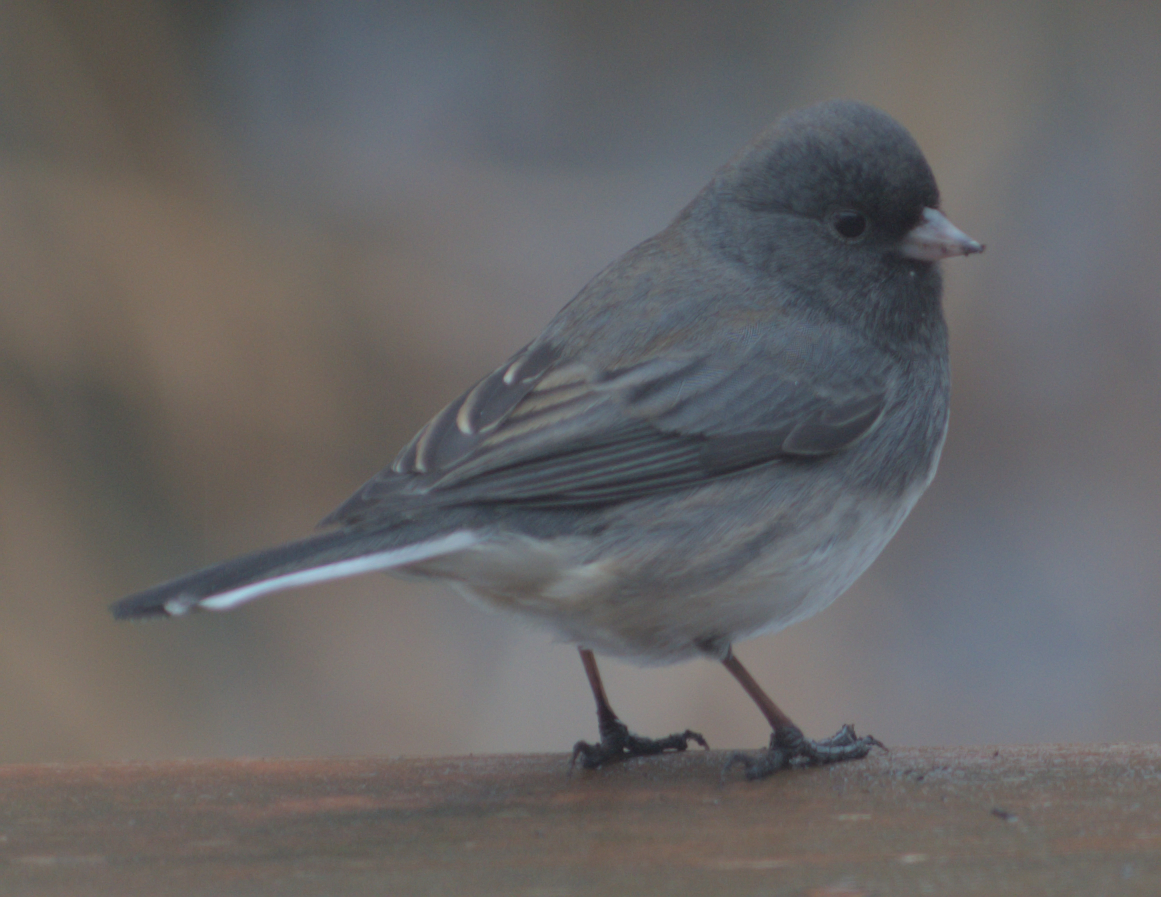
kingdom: Animalia
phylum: Chordata
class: Aves
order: Passeriformes
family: Passerellidae
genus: Junco
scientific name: Junco hyemalis
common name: Dark-eyed junco
